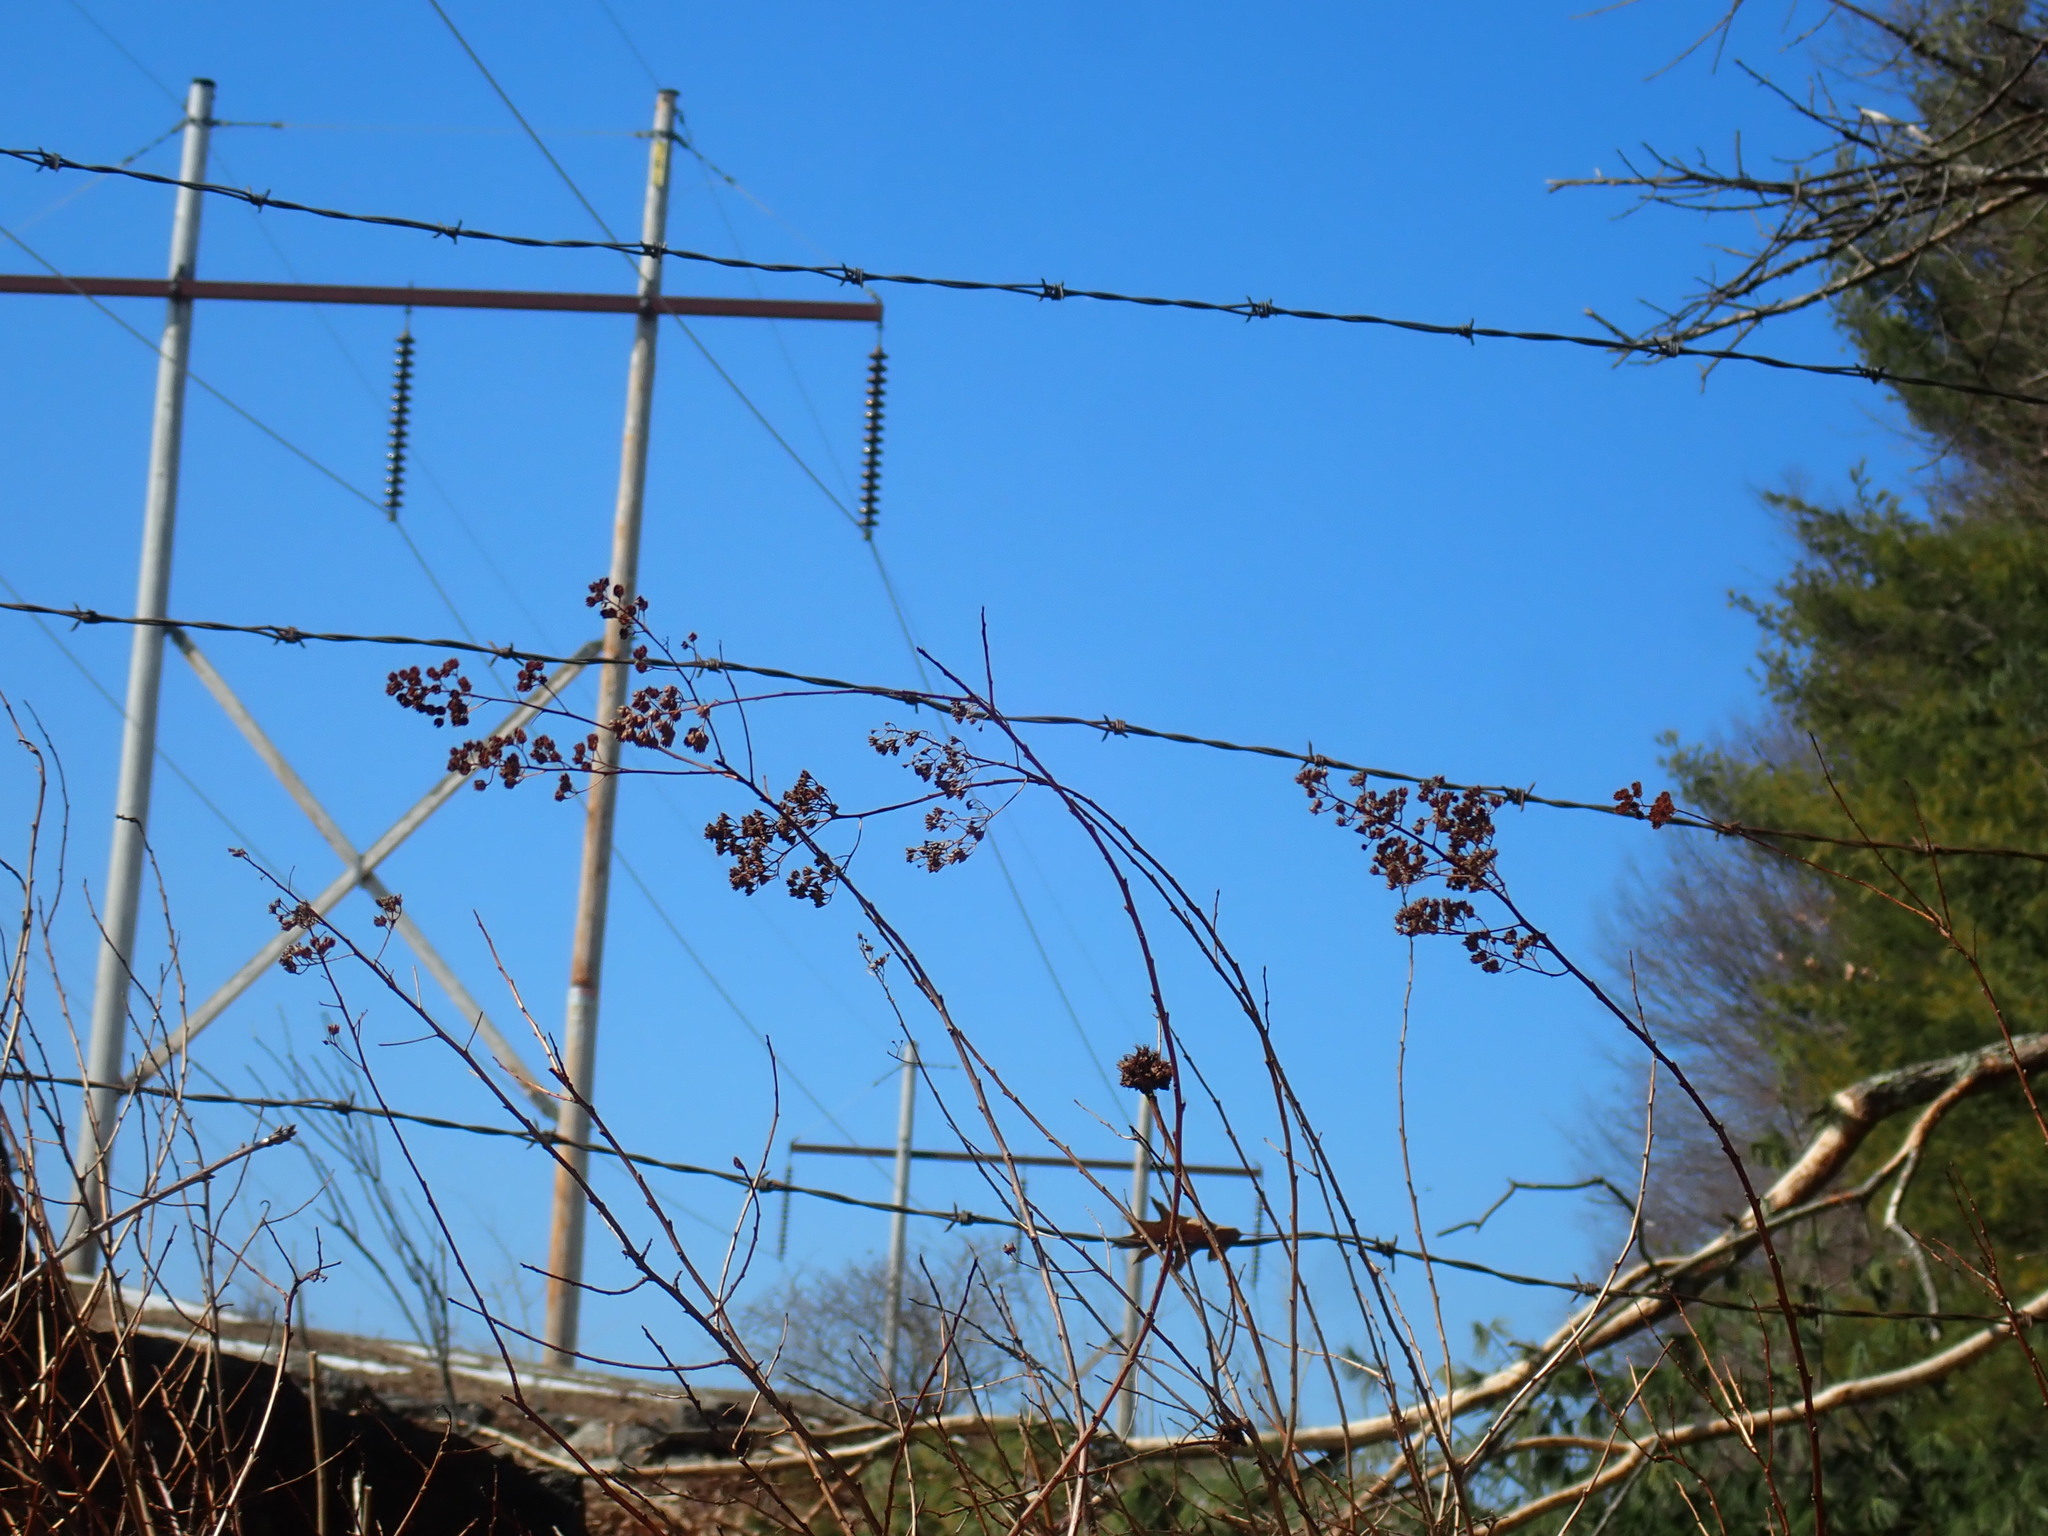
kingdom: Plantae
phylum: Tracheophyta
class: Magnoliopsida
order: Rosales
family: Rosaceae
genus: Spiraea
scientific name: Spiraea alba
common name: Pale bridewort
